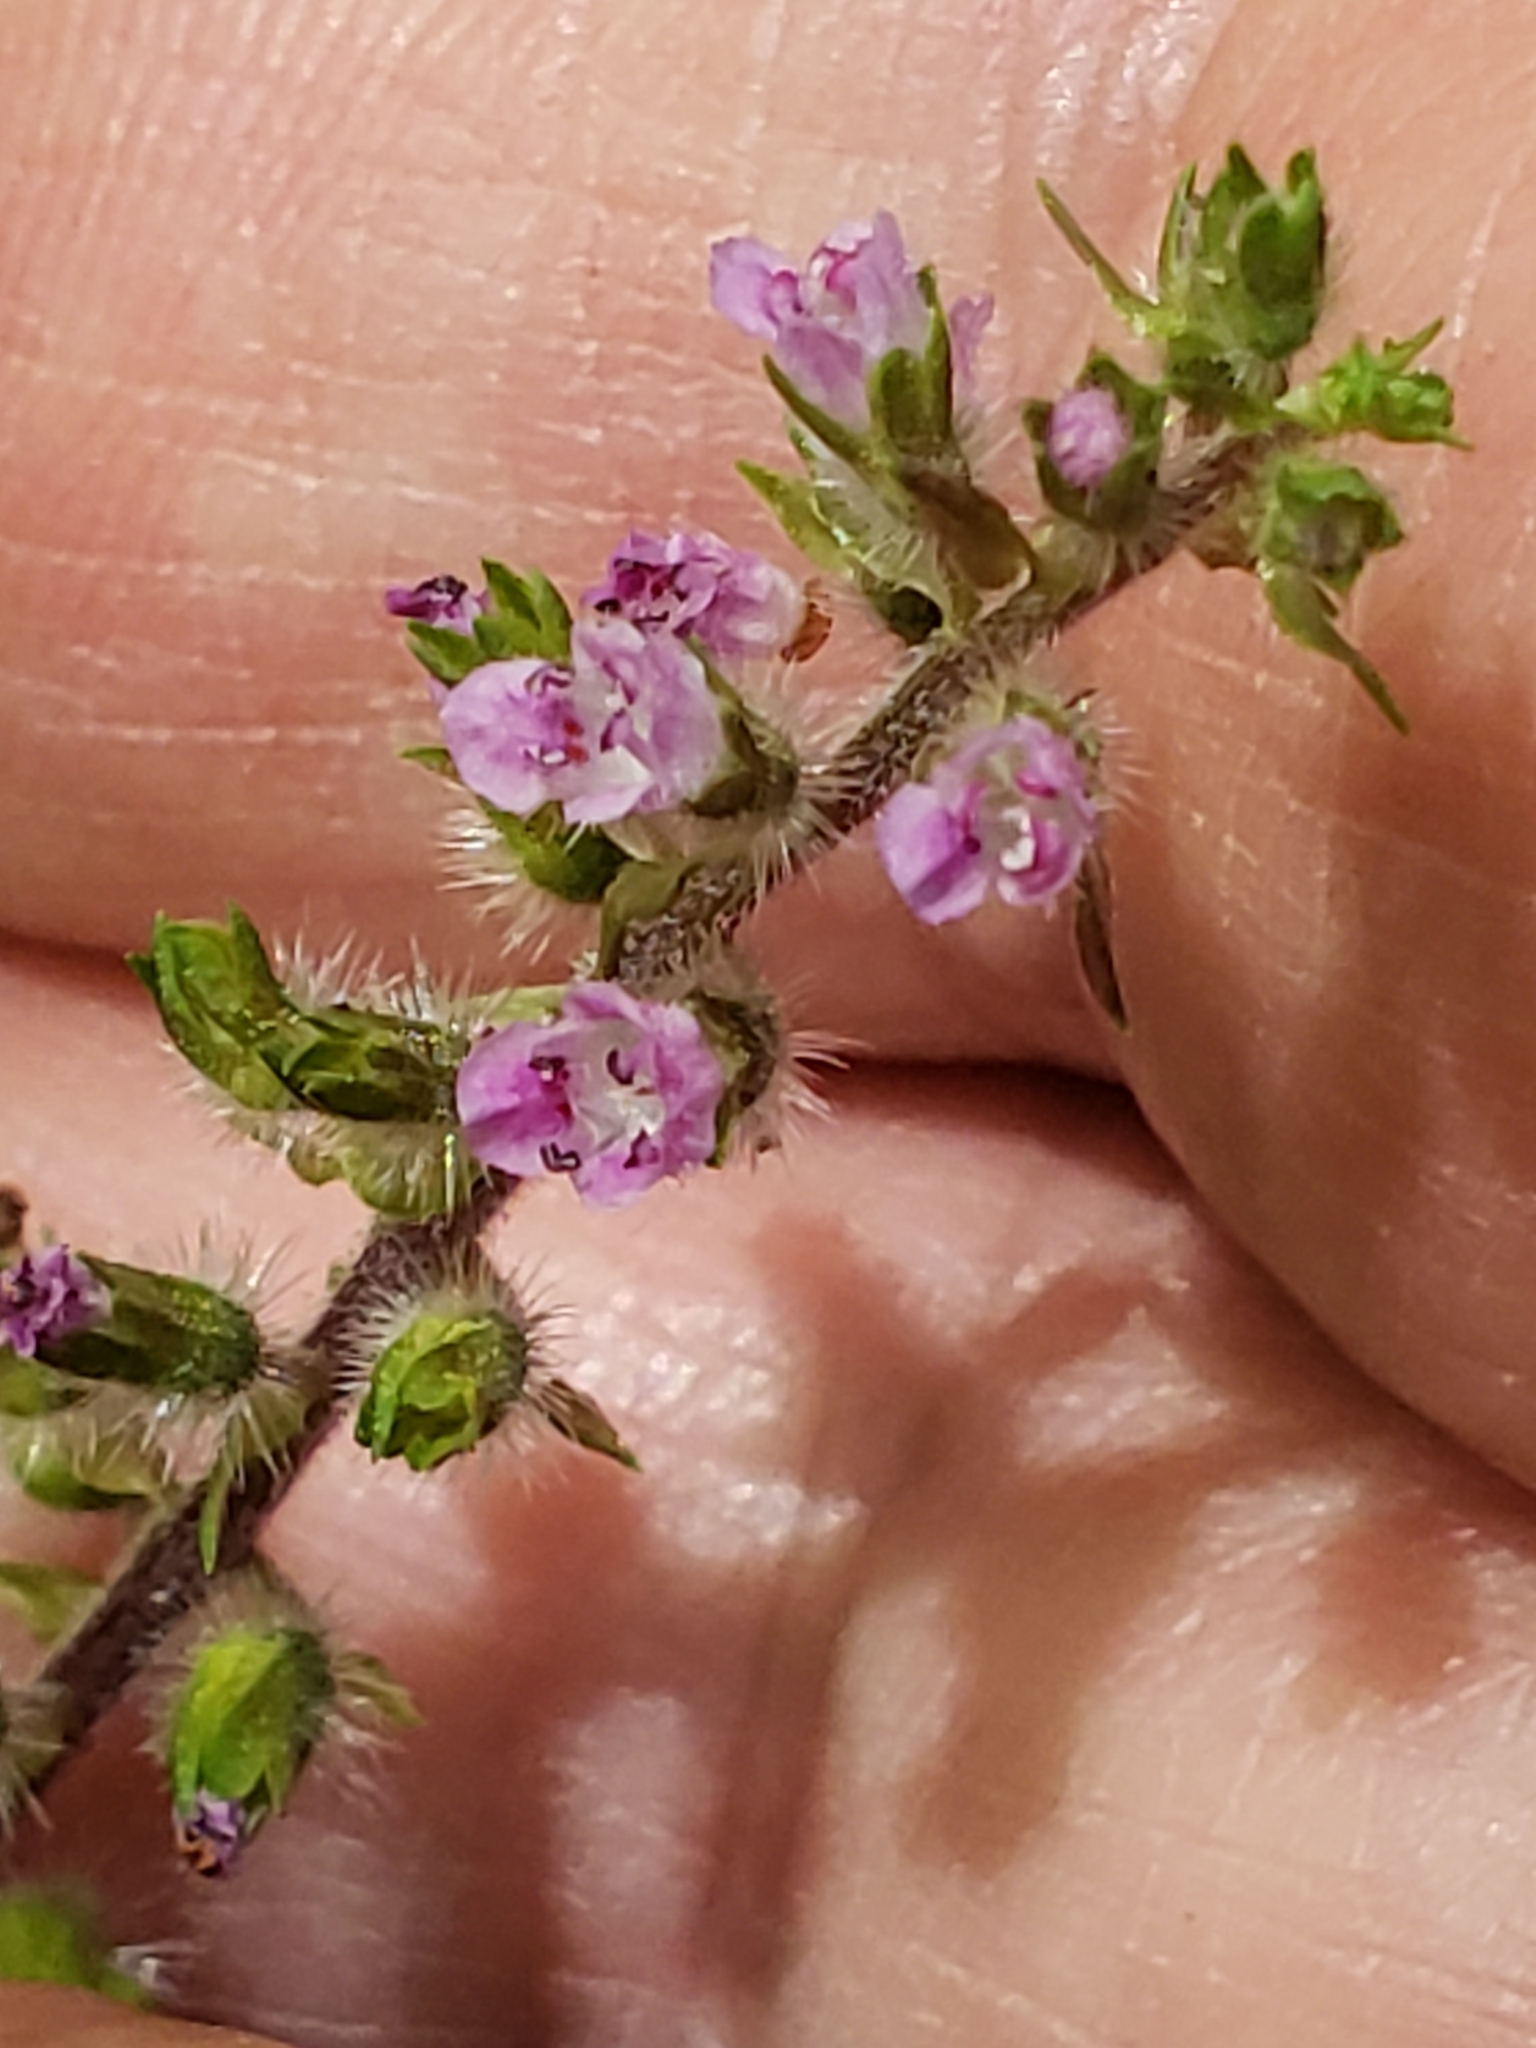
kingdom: Plantae
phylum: Tracheophyta
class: Magnoliopsida
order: Lamiales
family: Lamiaceae
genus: Perilla
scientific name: Perilla frutescens
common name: Perilla
